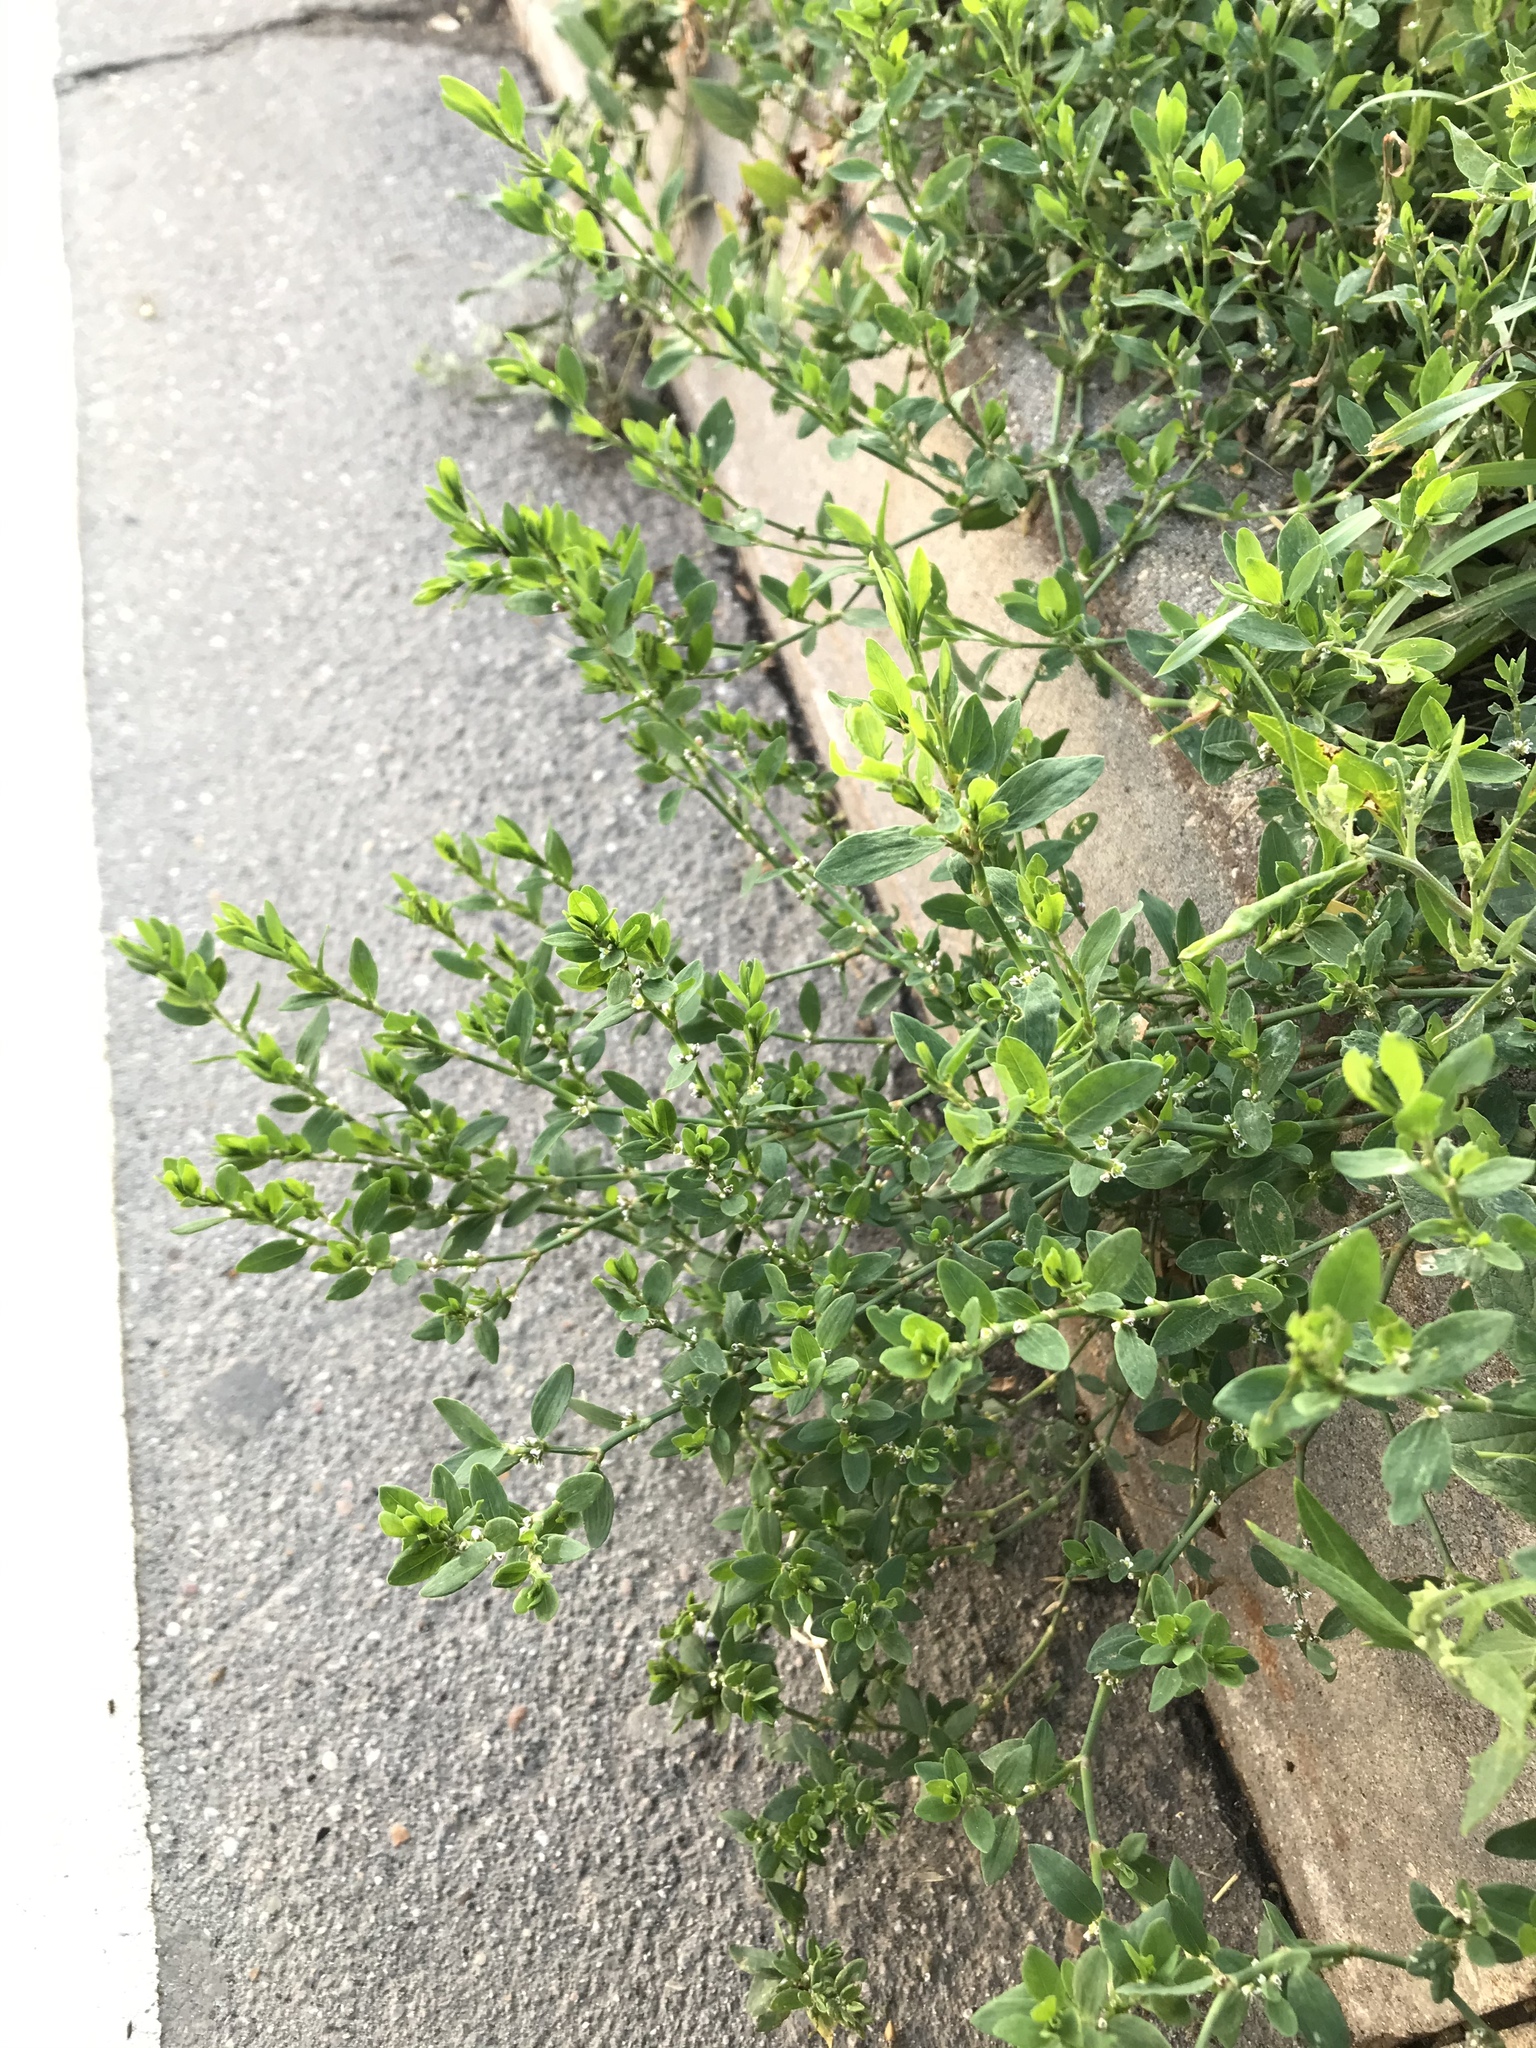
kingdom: Plantae
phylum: Tracheophyta
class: Magnoliopsida
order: Caryophyllales
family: Polygonaceae
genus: Polygonum
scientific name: Polygonum aviculare
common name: Prostrate knotweed
